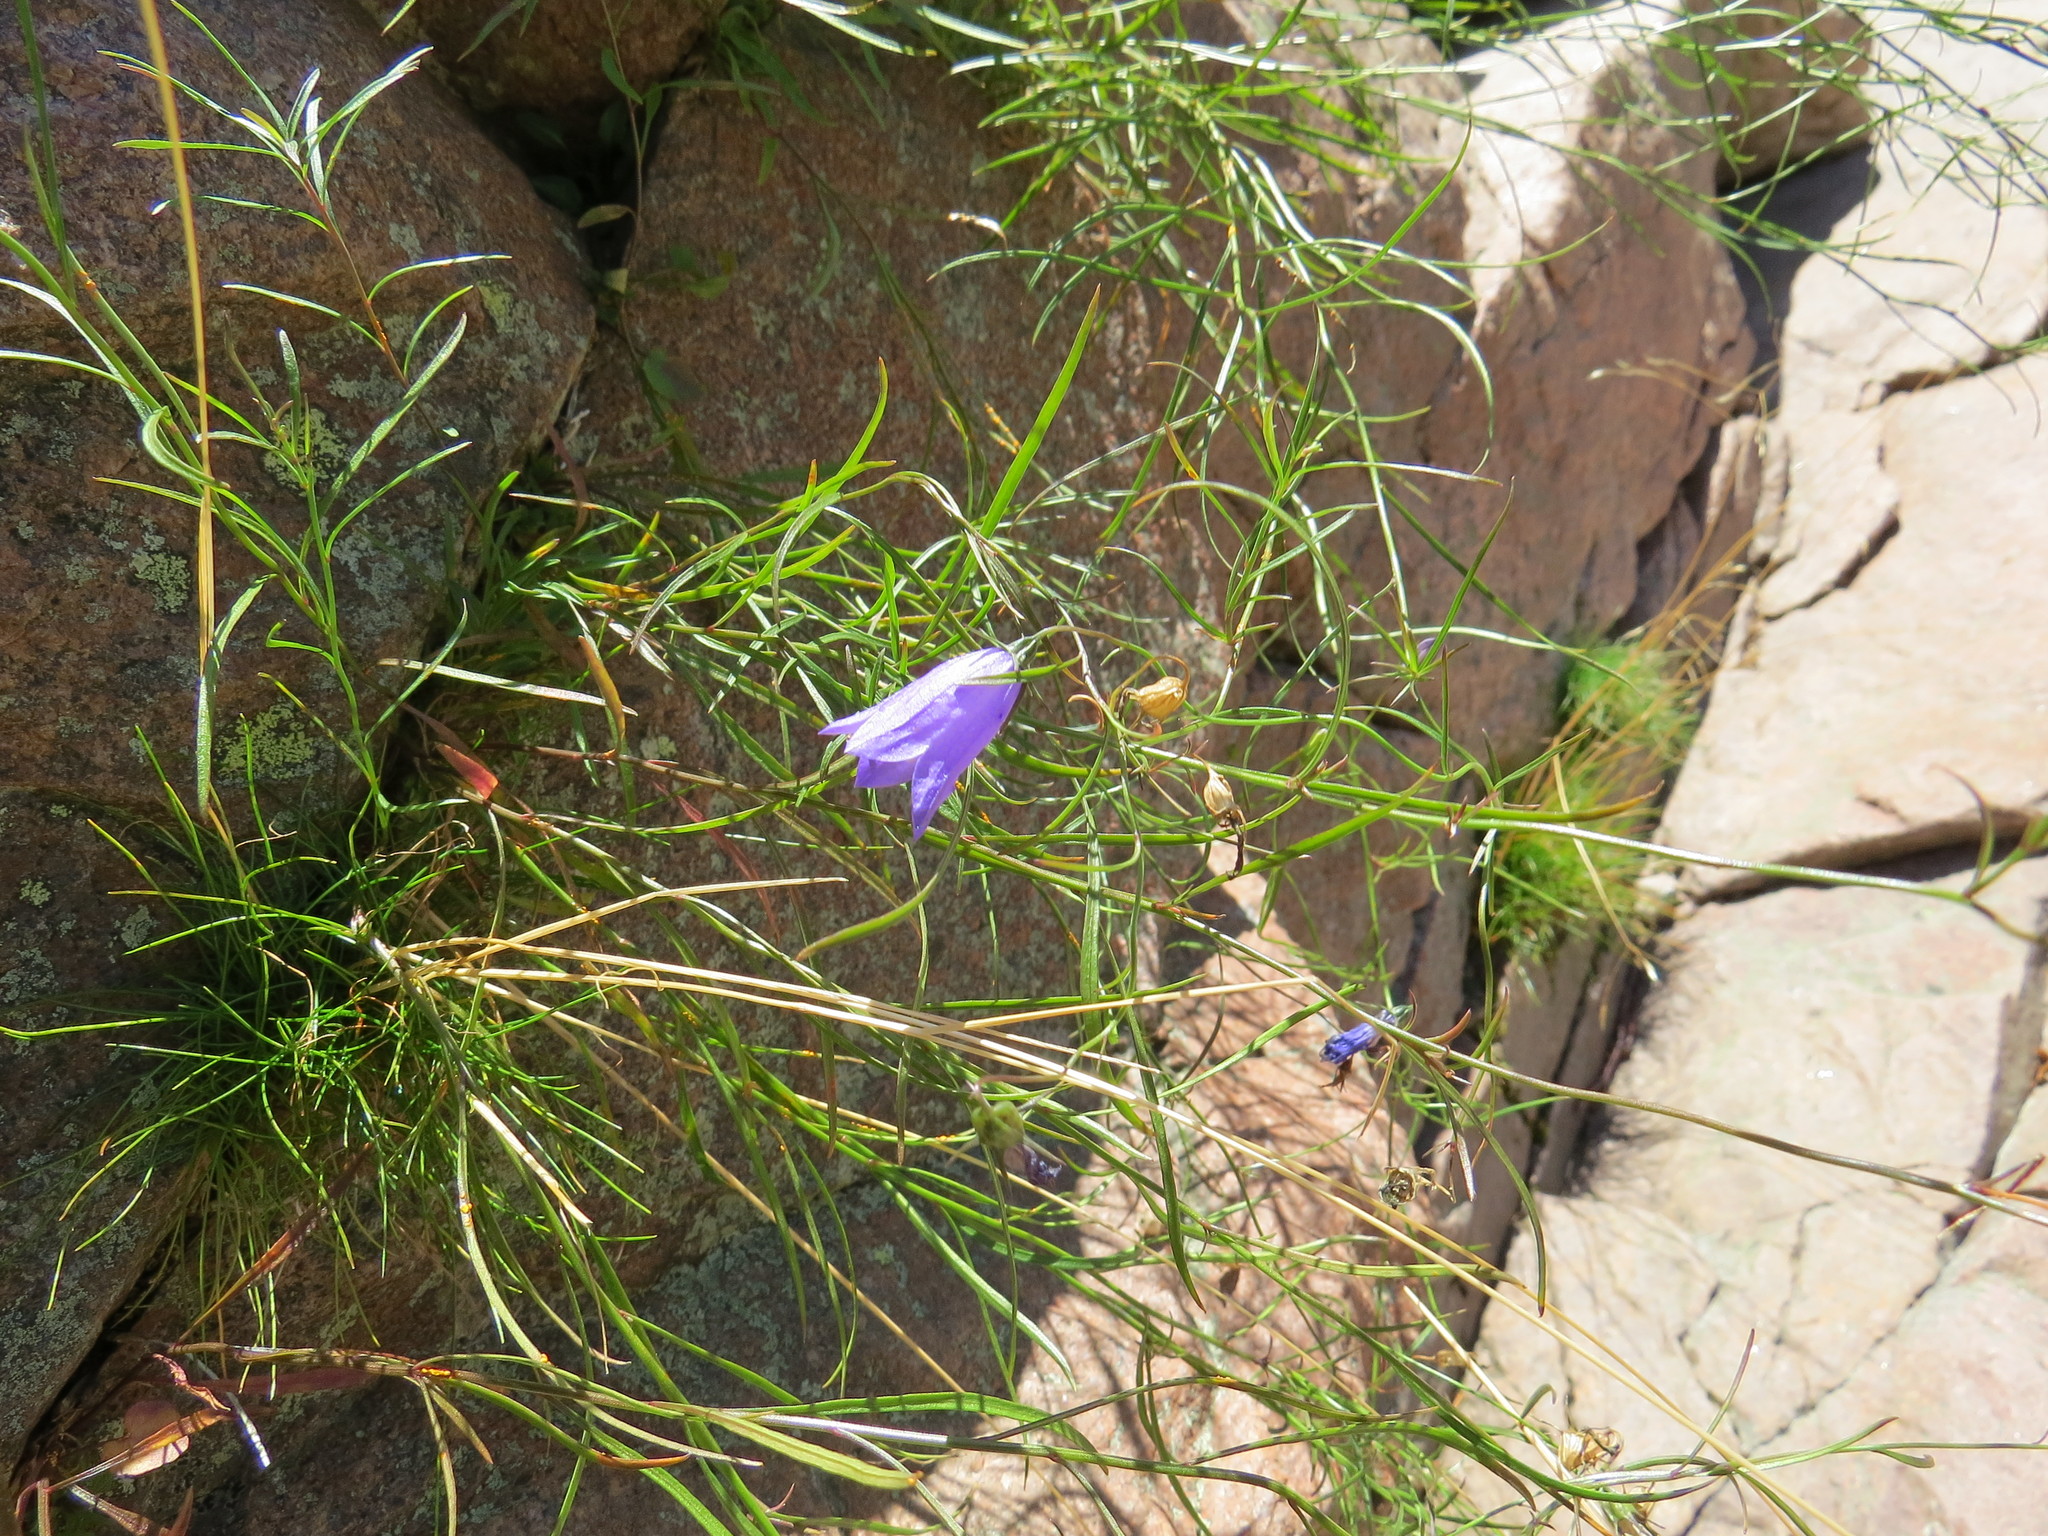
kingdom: Plantae
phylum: Tracheophyta
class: Magnoliopsida
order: Asterales
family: Campanulaceae
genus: Campanula
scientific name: Campanula intercedens
